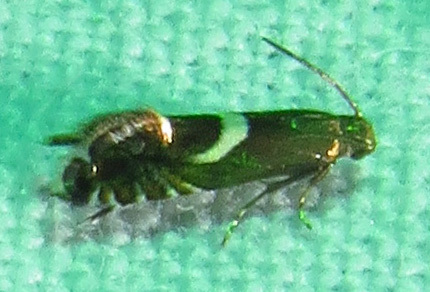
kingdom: Animalia
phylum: Arthropoda
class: Insecta
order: Lepidoptera
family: Glyphipterigidae
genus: Glyphipterix
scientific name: Glyphipterix Diploschizia impigritella
